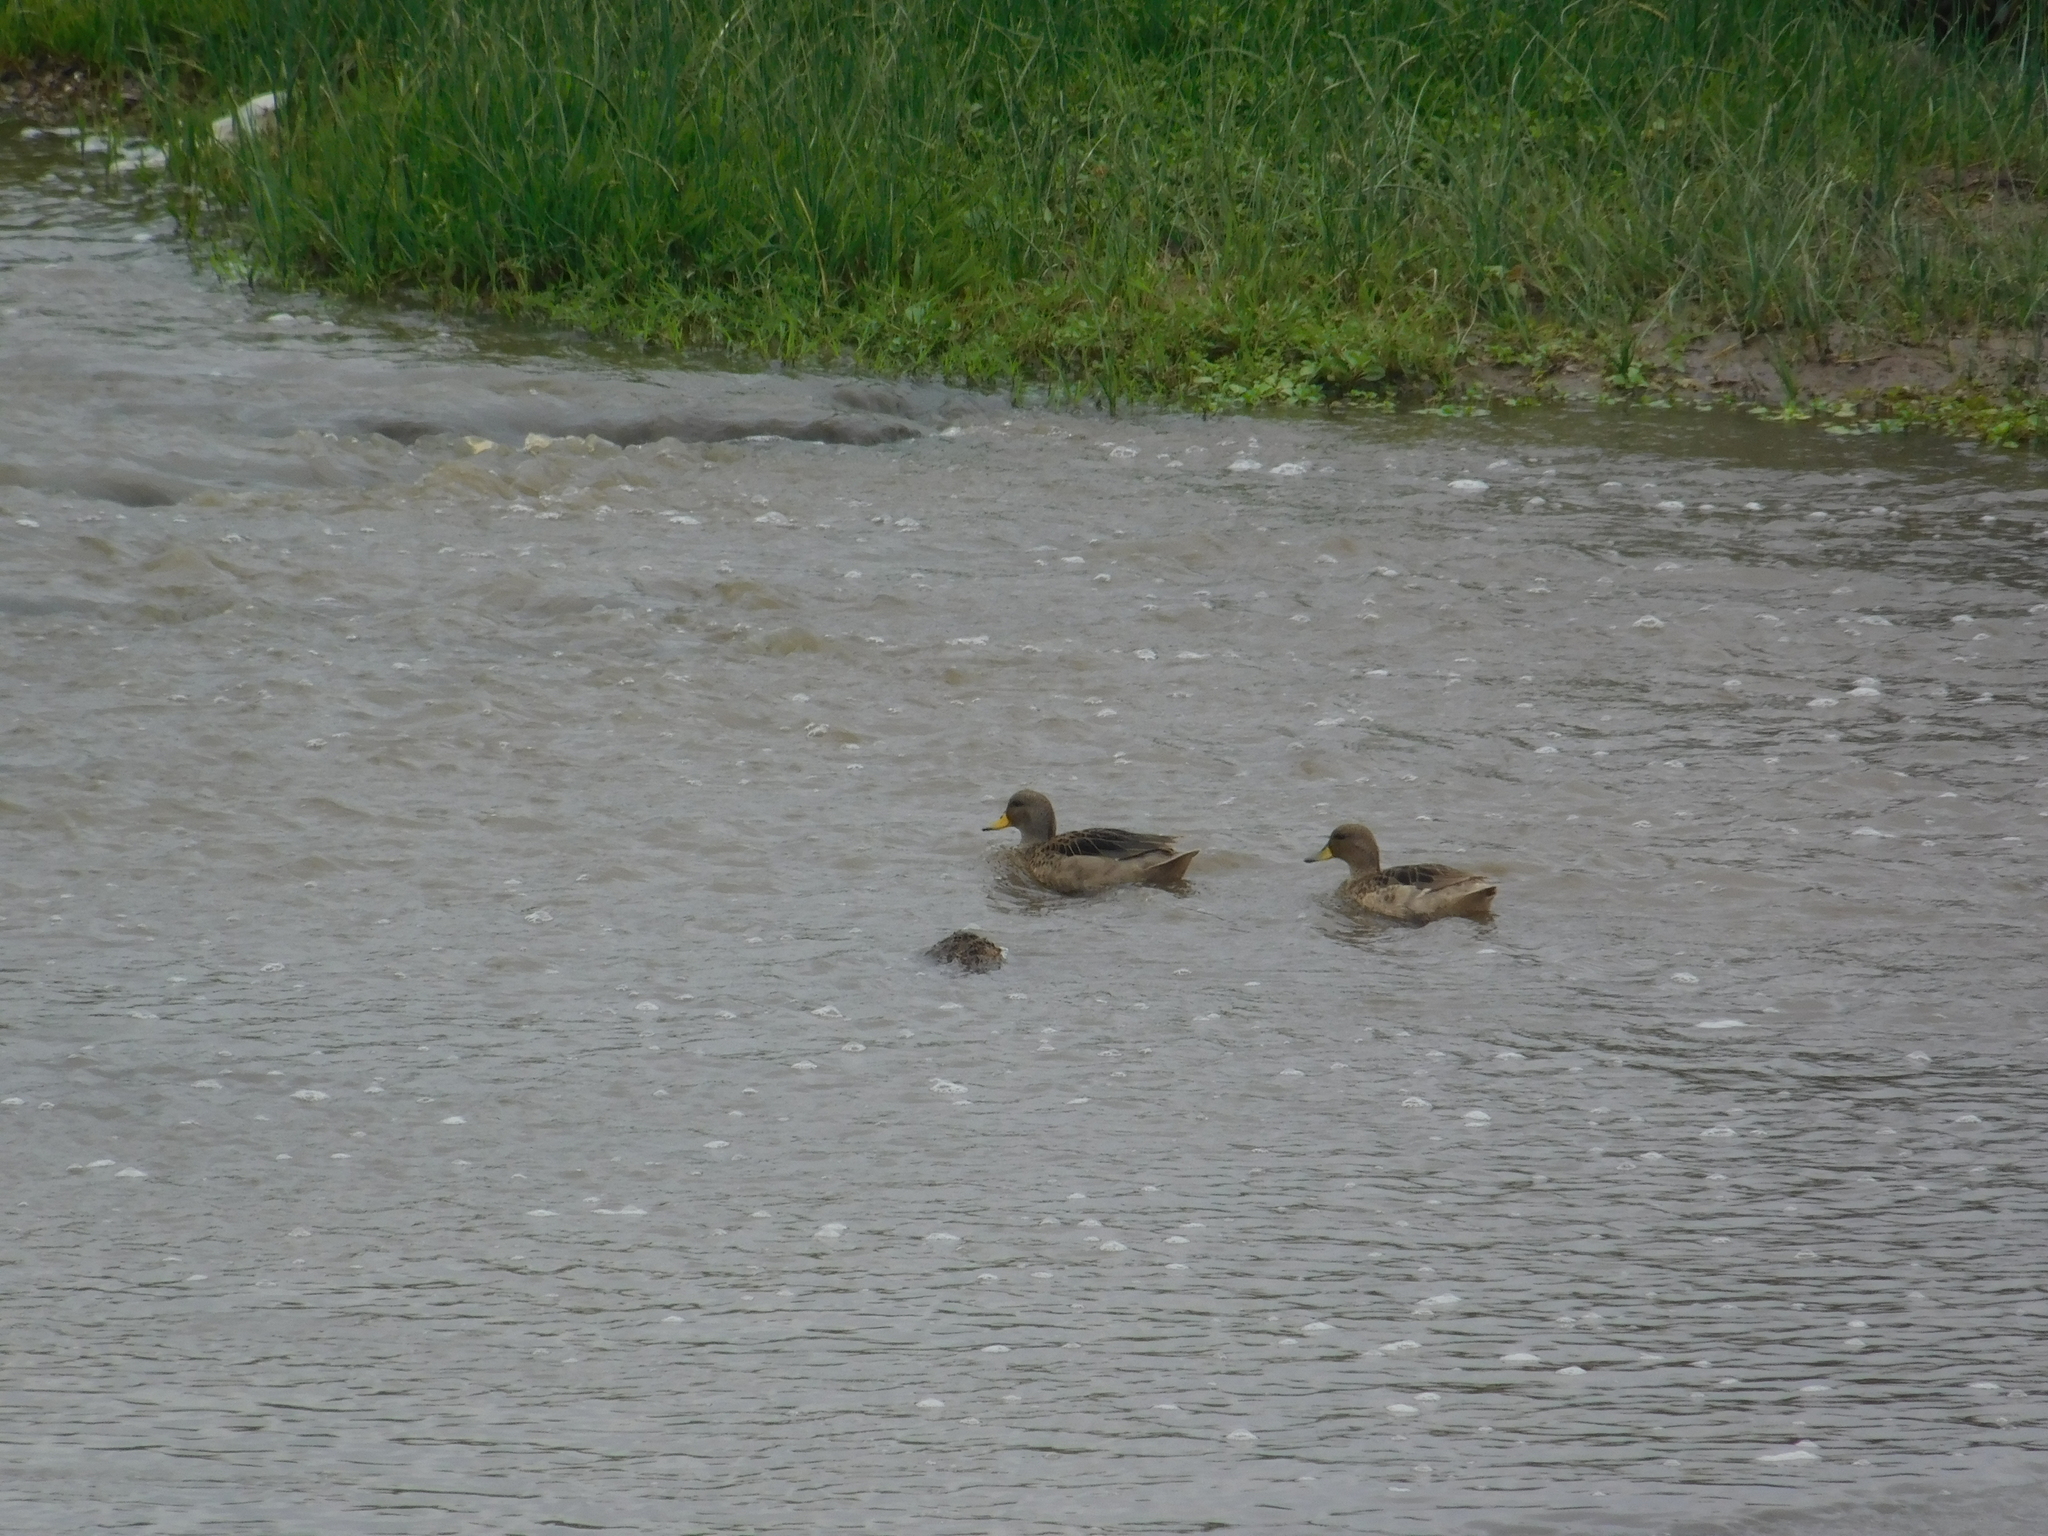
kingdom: Animalia
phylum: Chordata
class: Aves
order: Anseriformes
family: Anatidae
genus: Anas
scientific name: Anas flavirostris
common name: Yellow-billed teal
